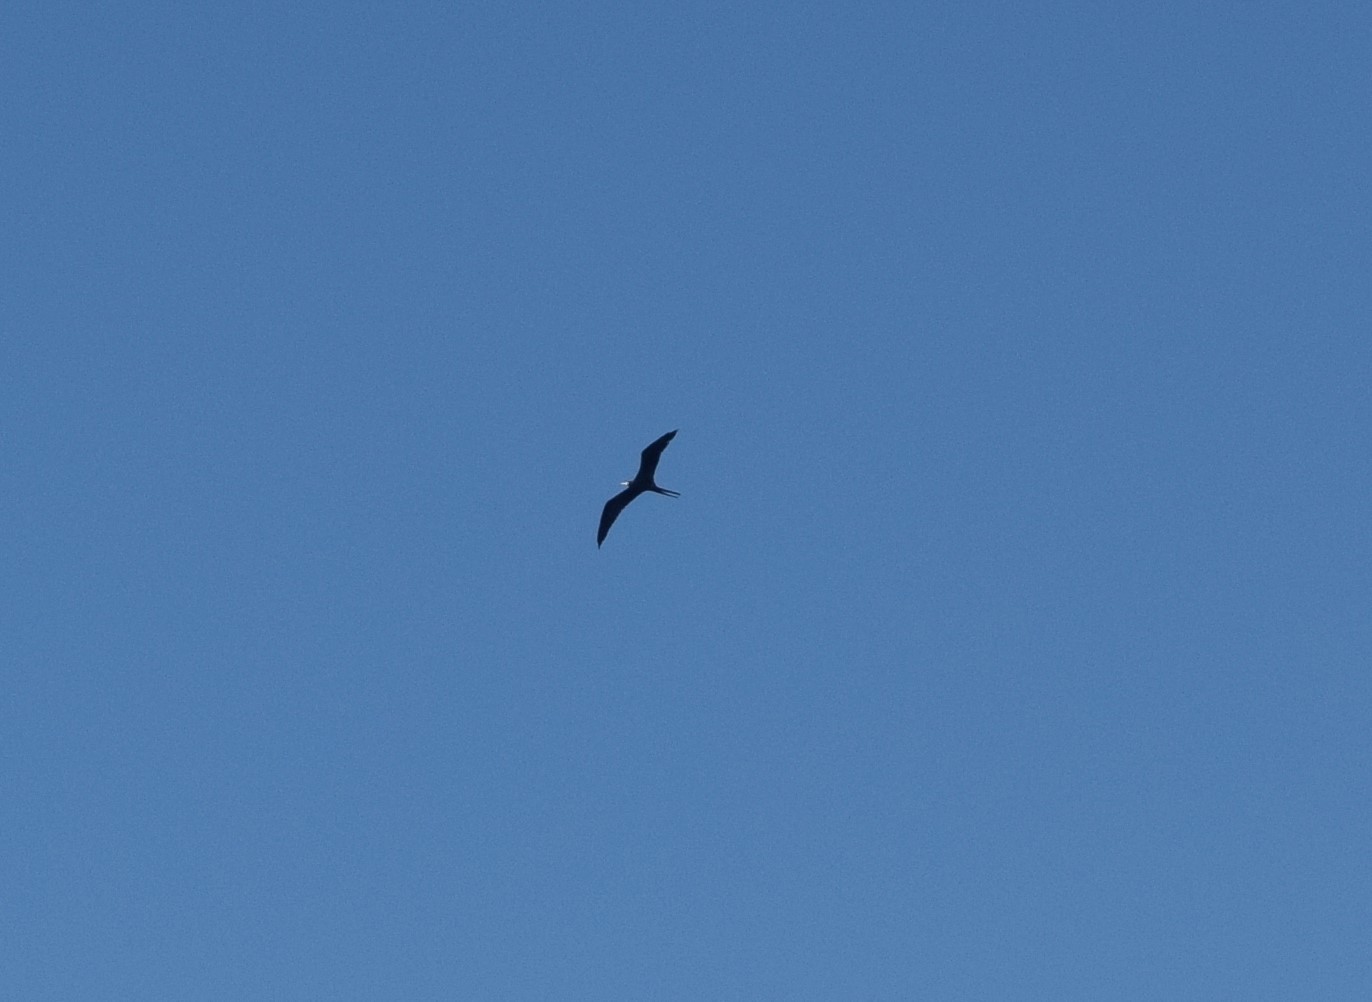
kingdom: Animalia
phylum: Chordata
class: Aves
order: Suliformes
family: Fregatidae
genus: Fregata
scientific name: Fregata magnificens
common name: Magnificent frigatebird
